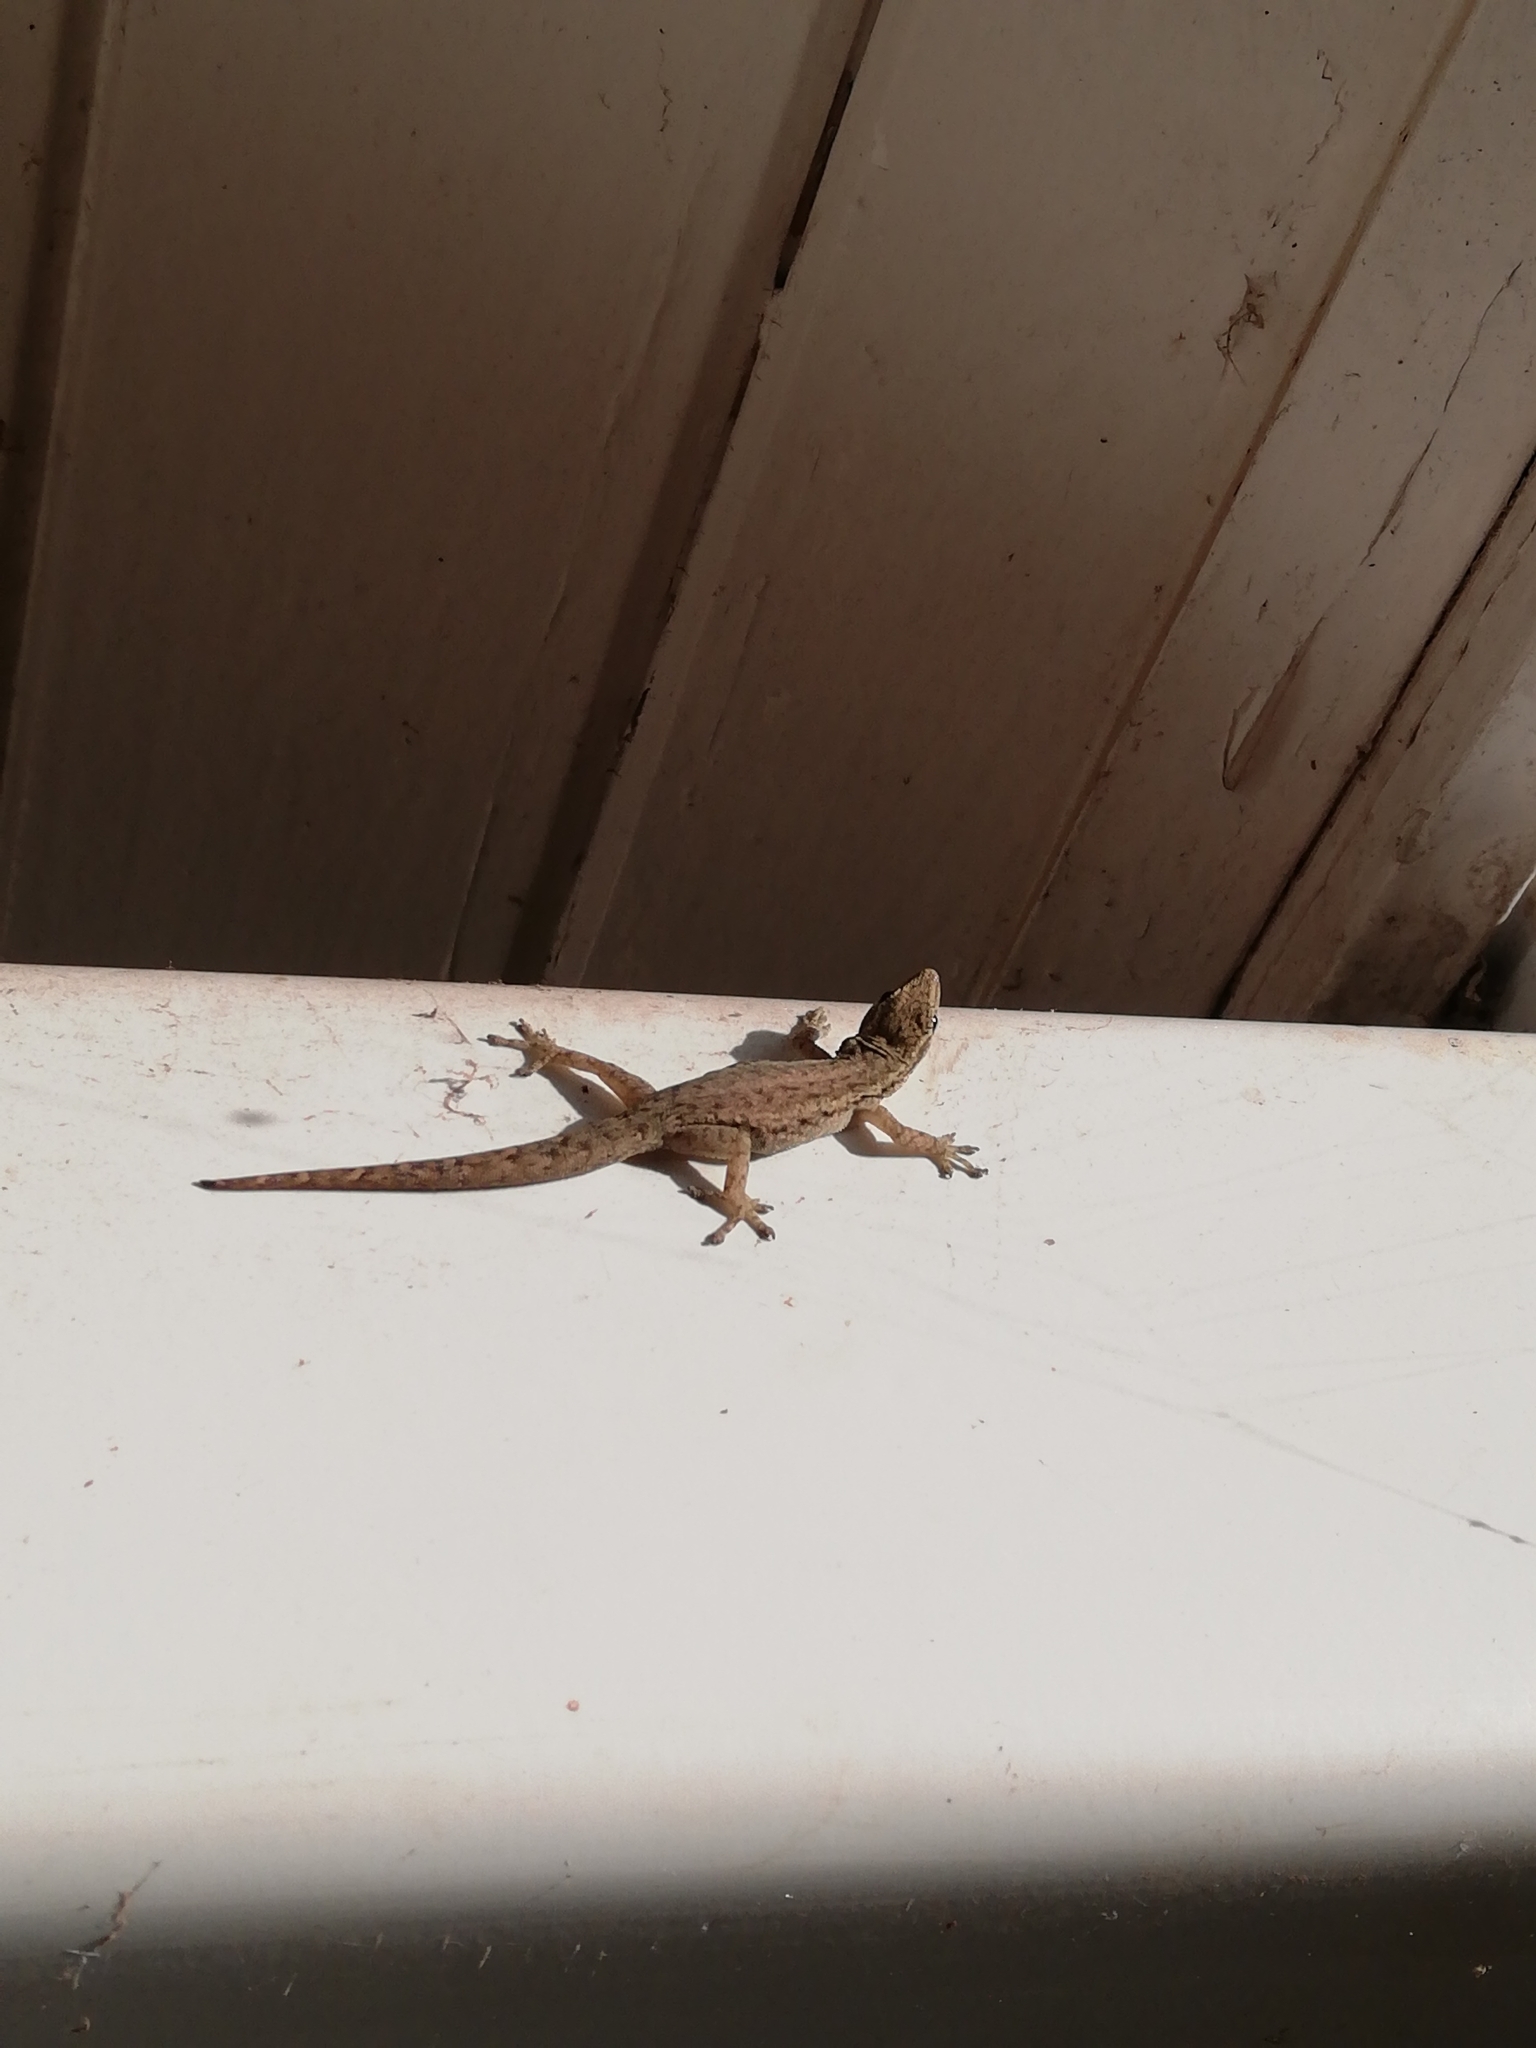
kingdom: Animalia
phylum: Chordata
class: Squamata
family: Gekkonidae
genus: Lygodactylus
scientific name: Lygodactylus capensis
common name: Cape dwarf gecko
